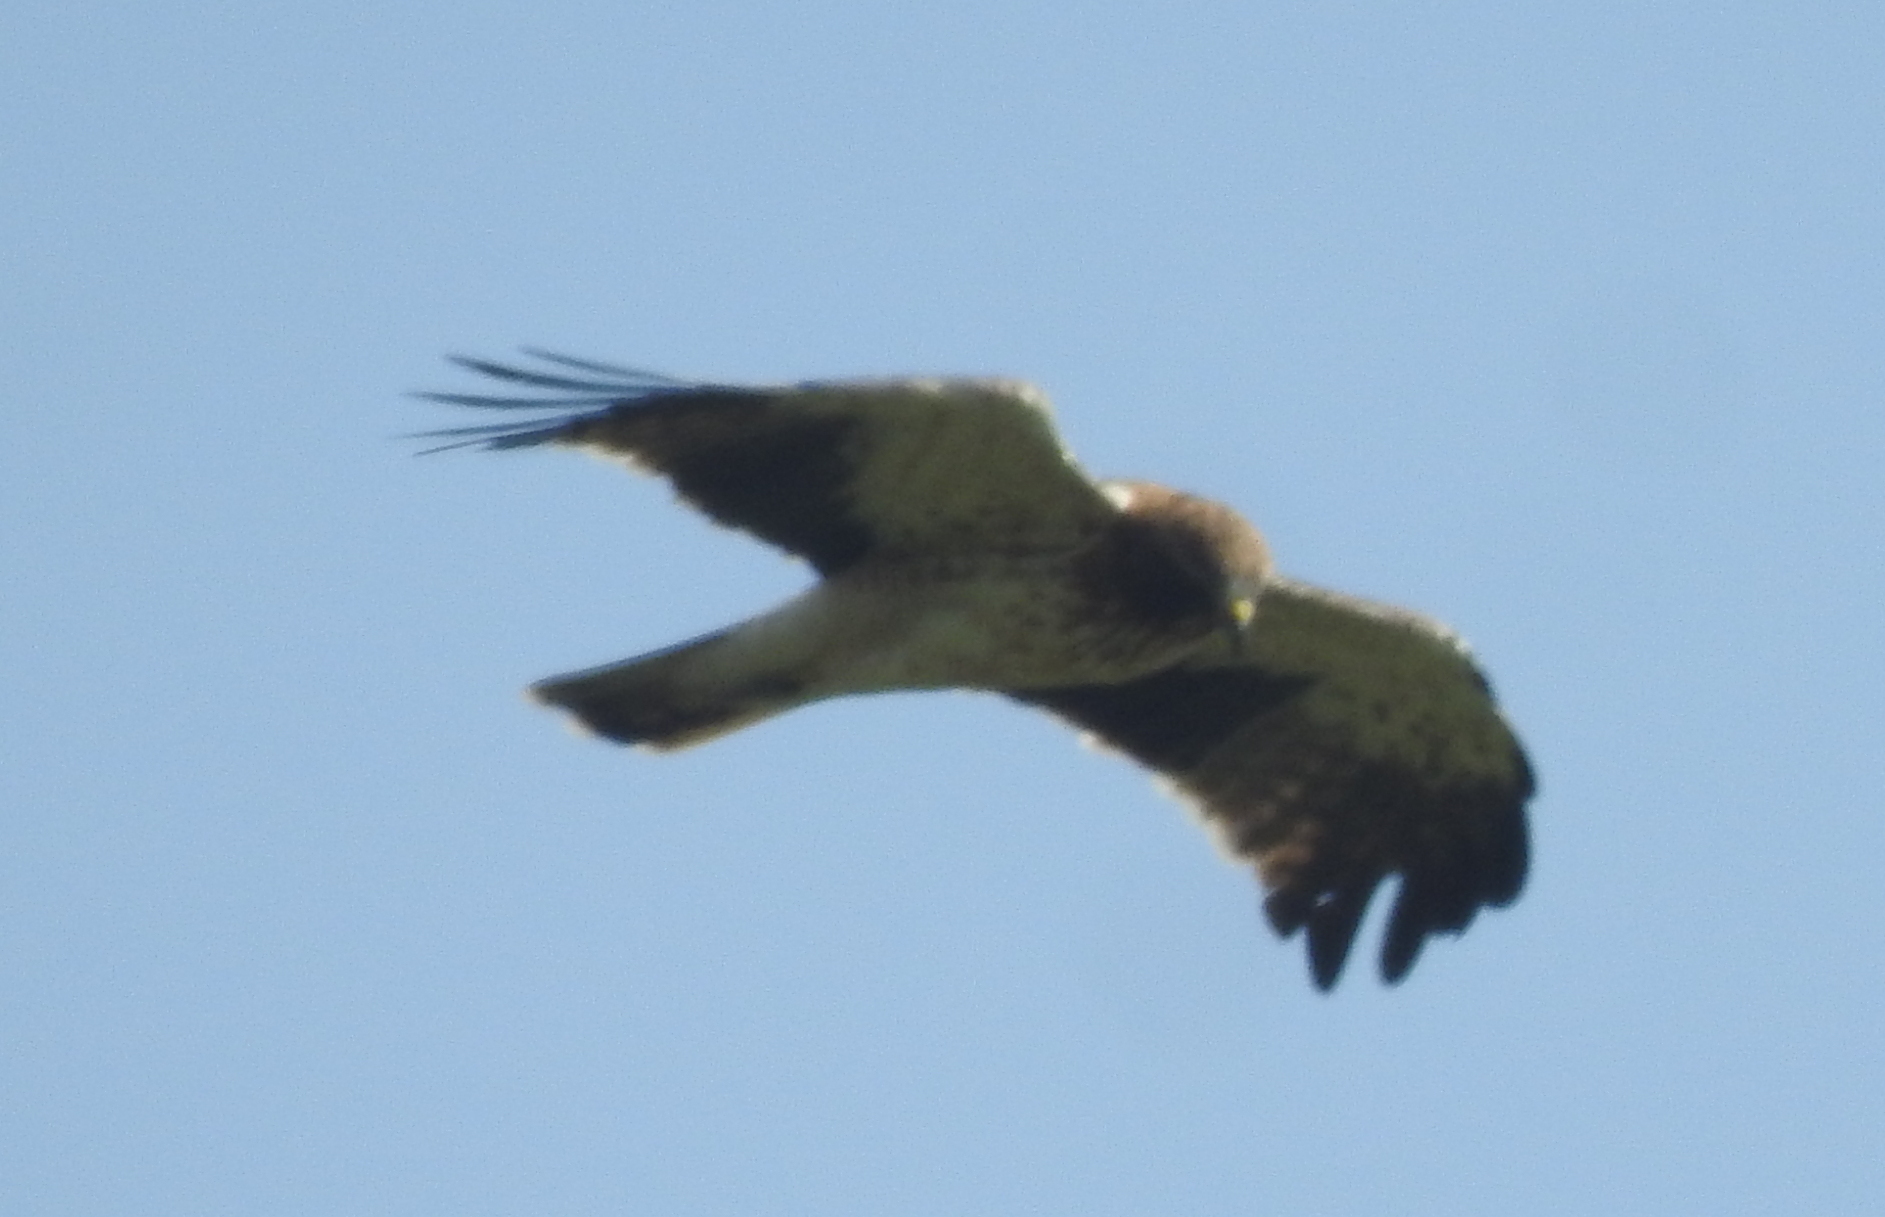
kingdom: Animalia
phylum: Chordata
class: Aves
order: Accipitriformes
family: Accipitridae
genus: Hieraaetus
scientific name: Hieraaetus pennatus
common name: Booted eagle
